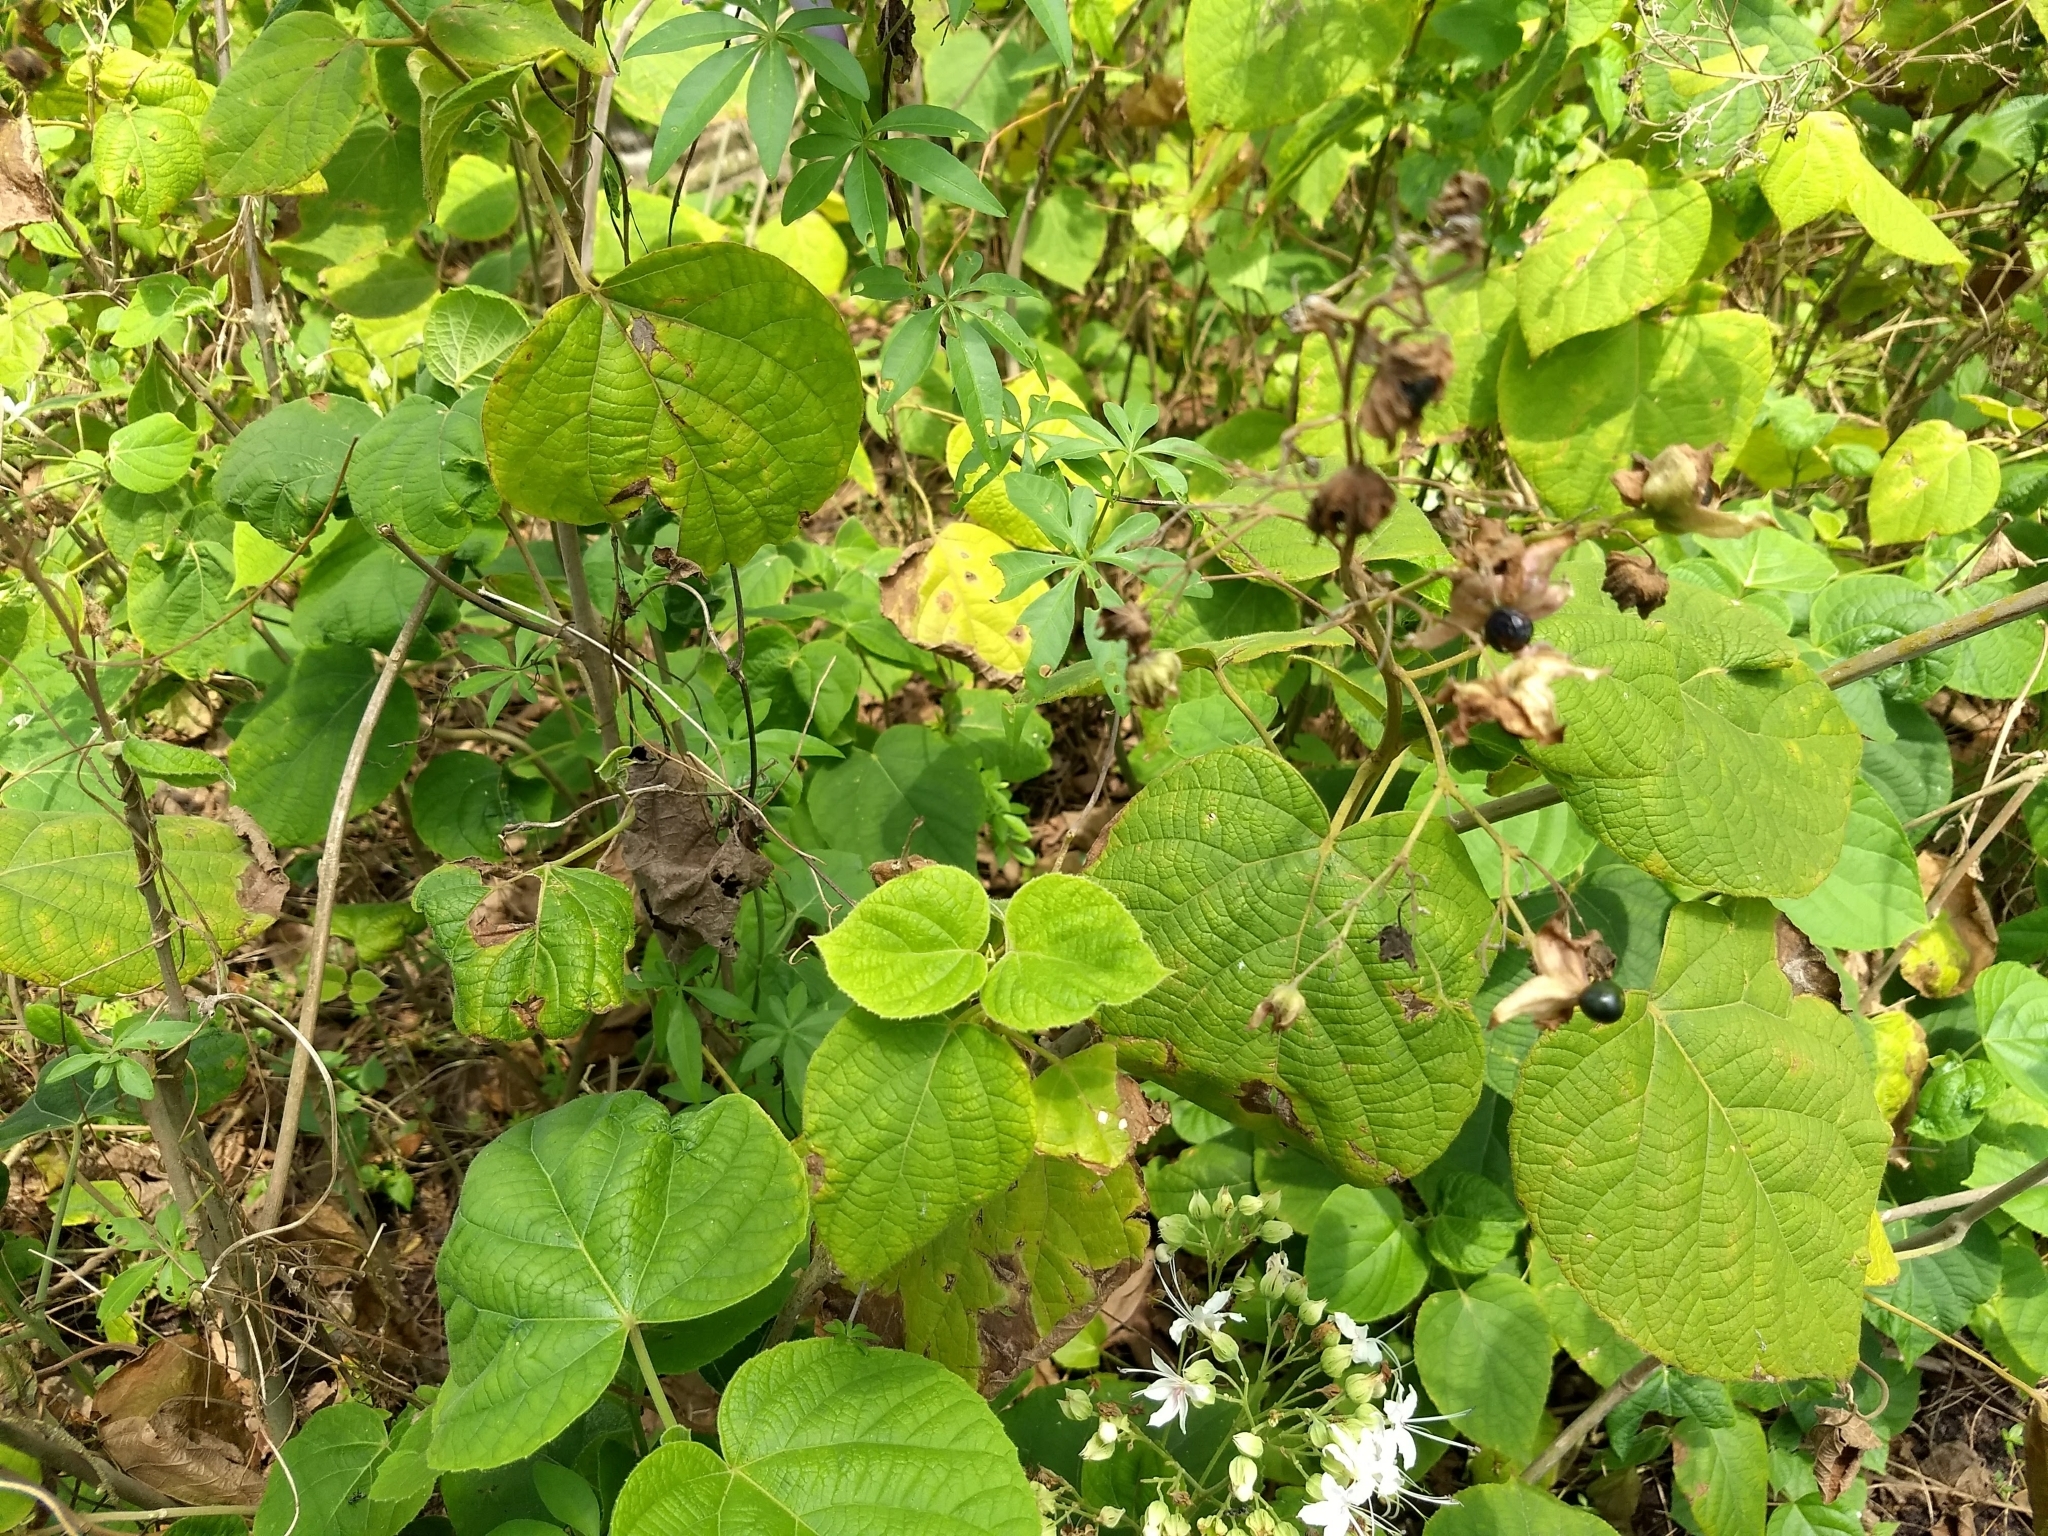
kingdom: Plantae
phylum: Tracheophyta
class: Magnoliopsida
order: Lamiales
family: Lamiaceae
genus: Clerodendrum
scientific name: Clerodendrum infortunatum
